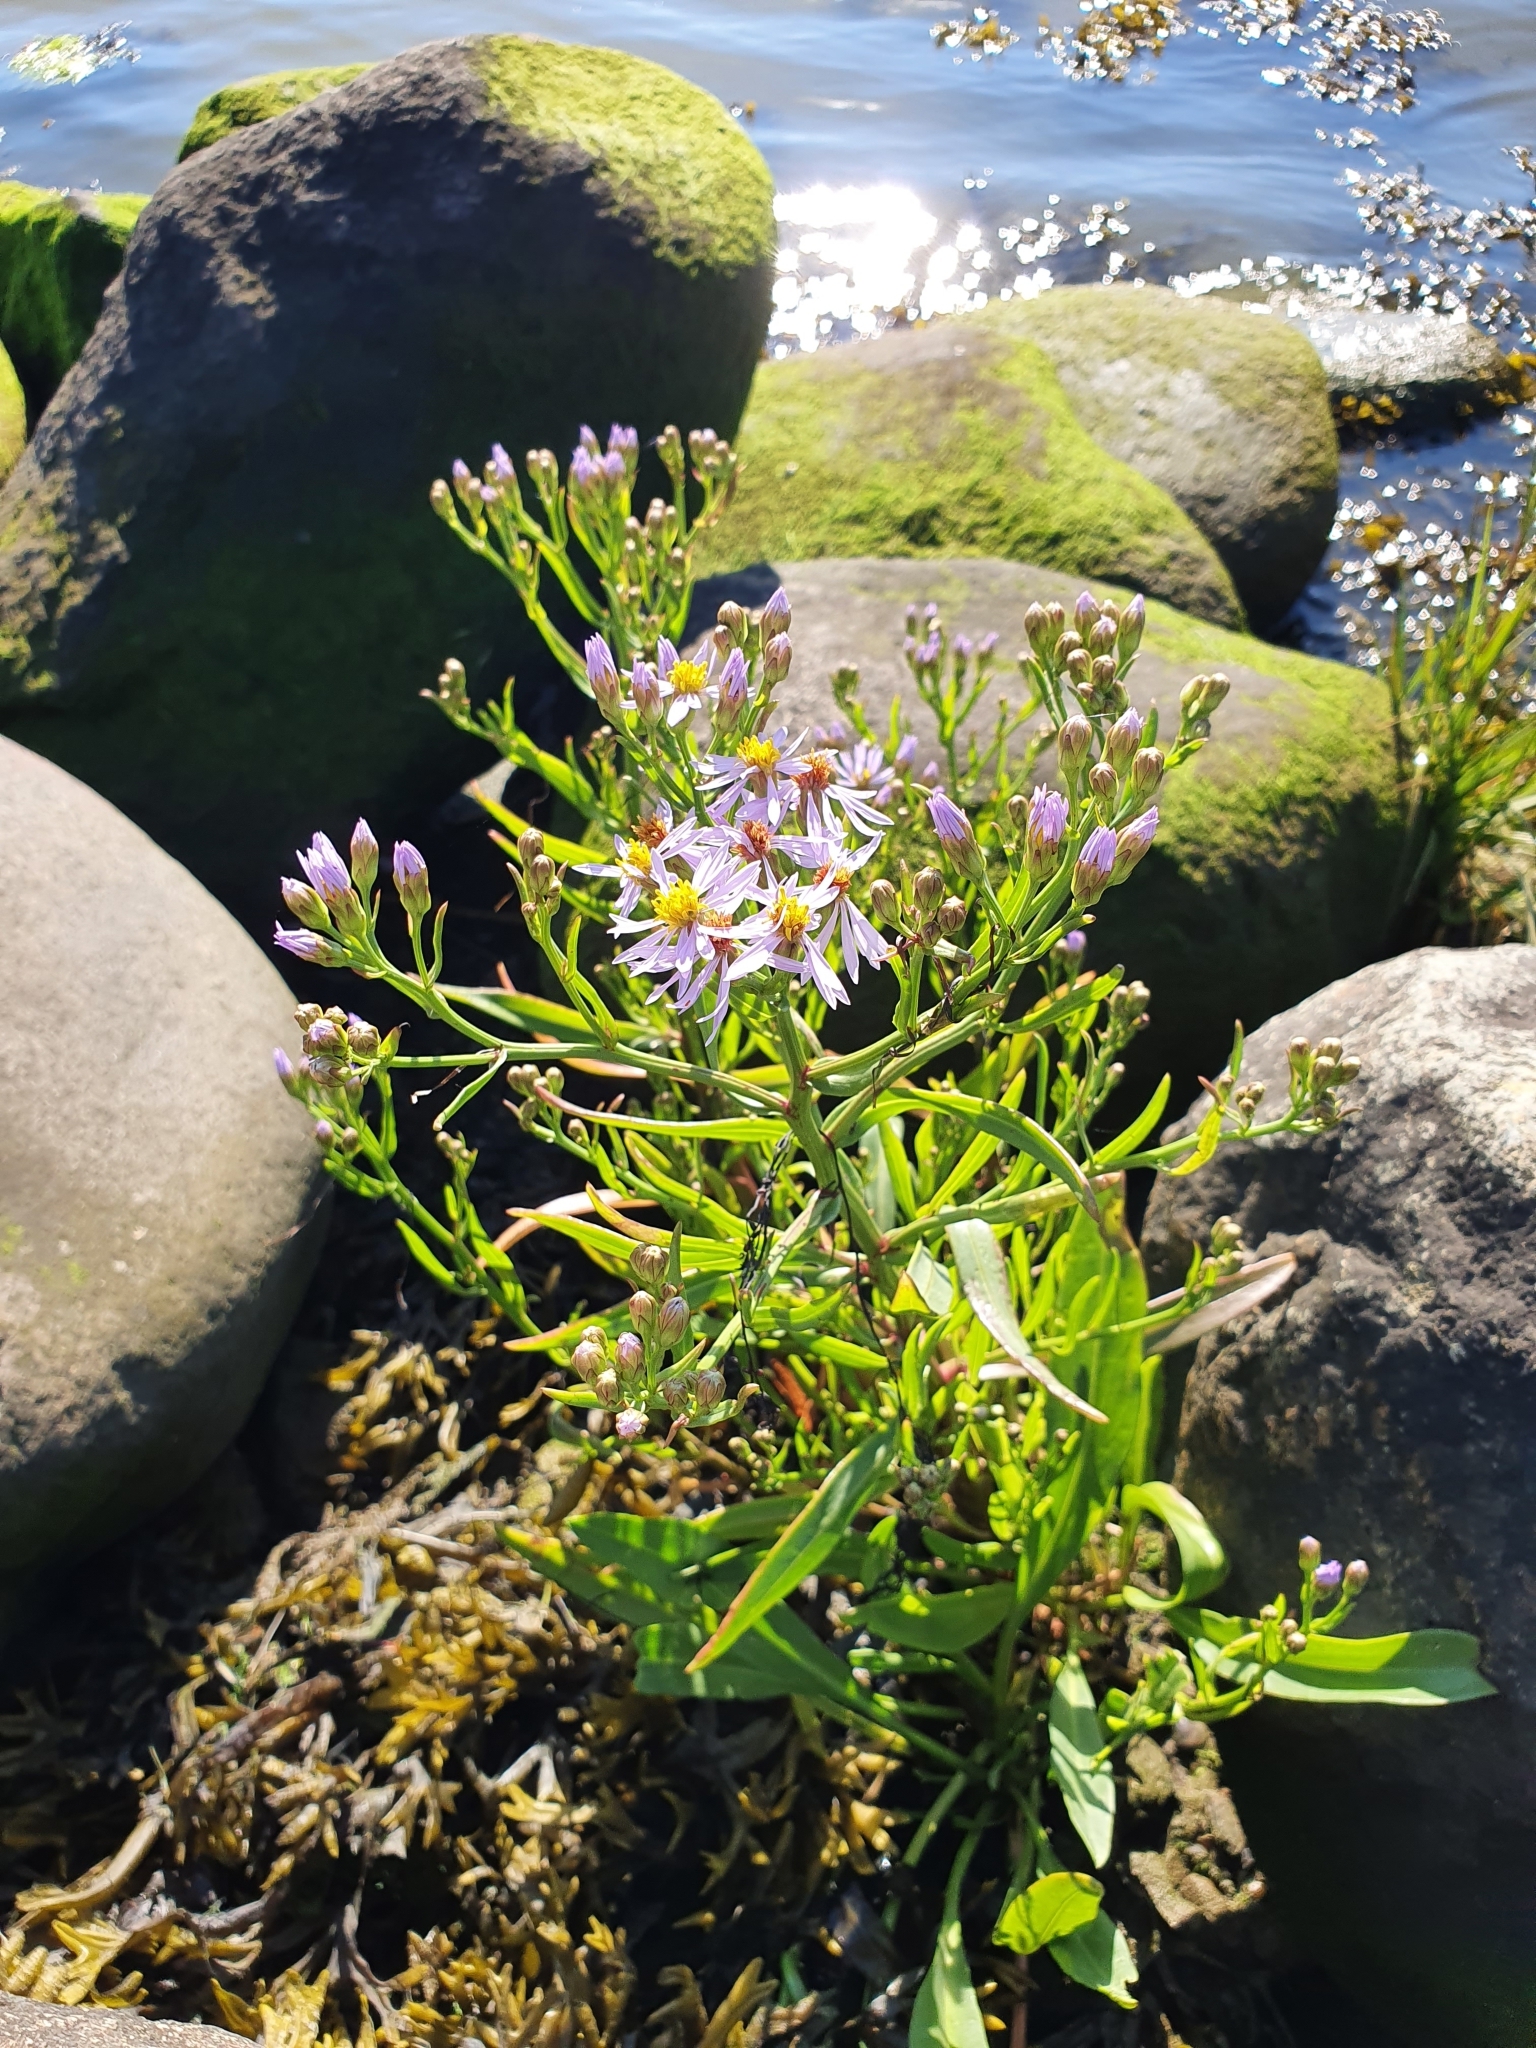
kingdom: Plantae
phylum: Tracheophyta
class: Magnoliopsida
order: Asterales
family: Asteraceae
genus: Tripolium
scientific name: Tripolium pannonicum
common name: Sea aster
